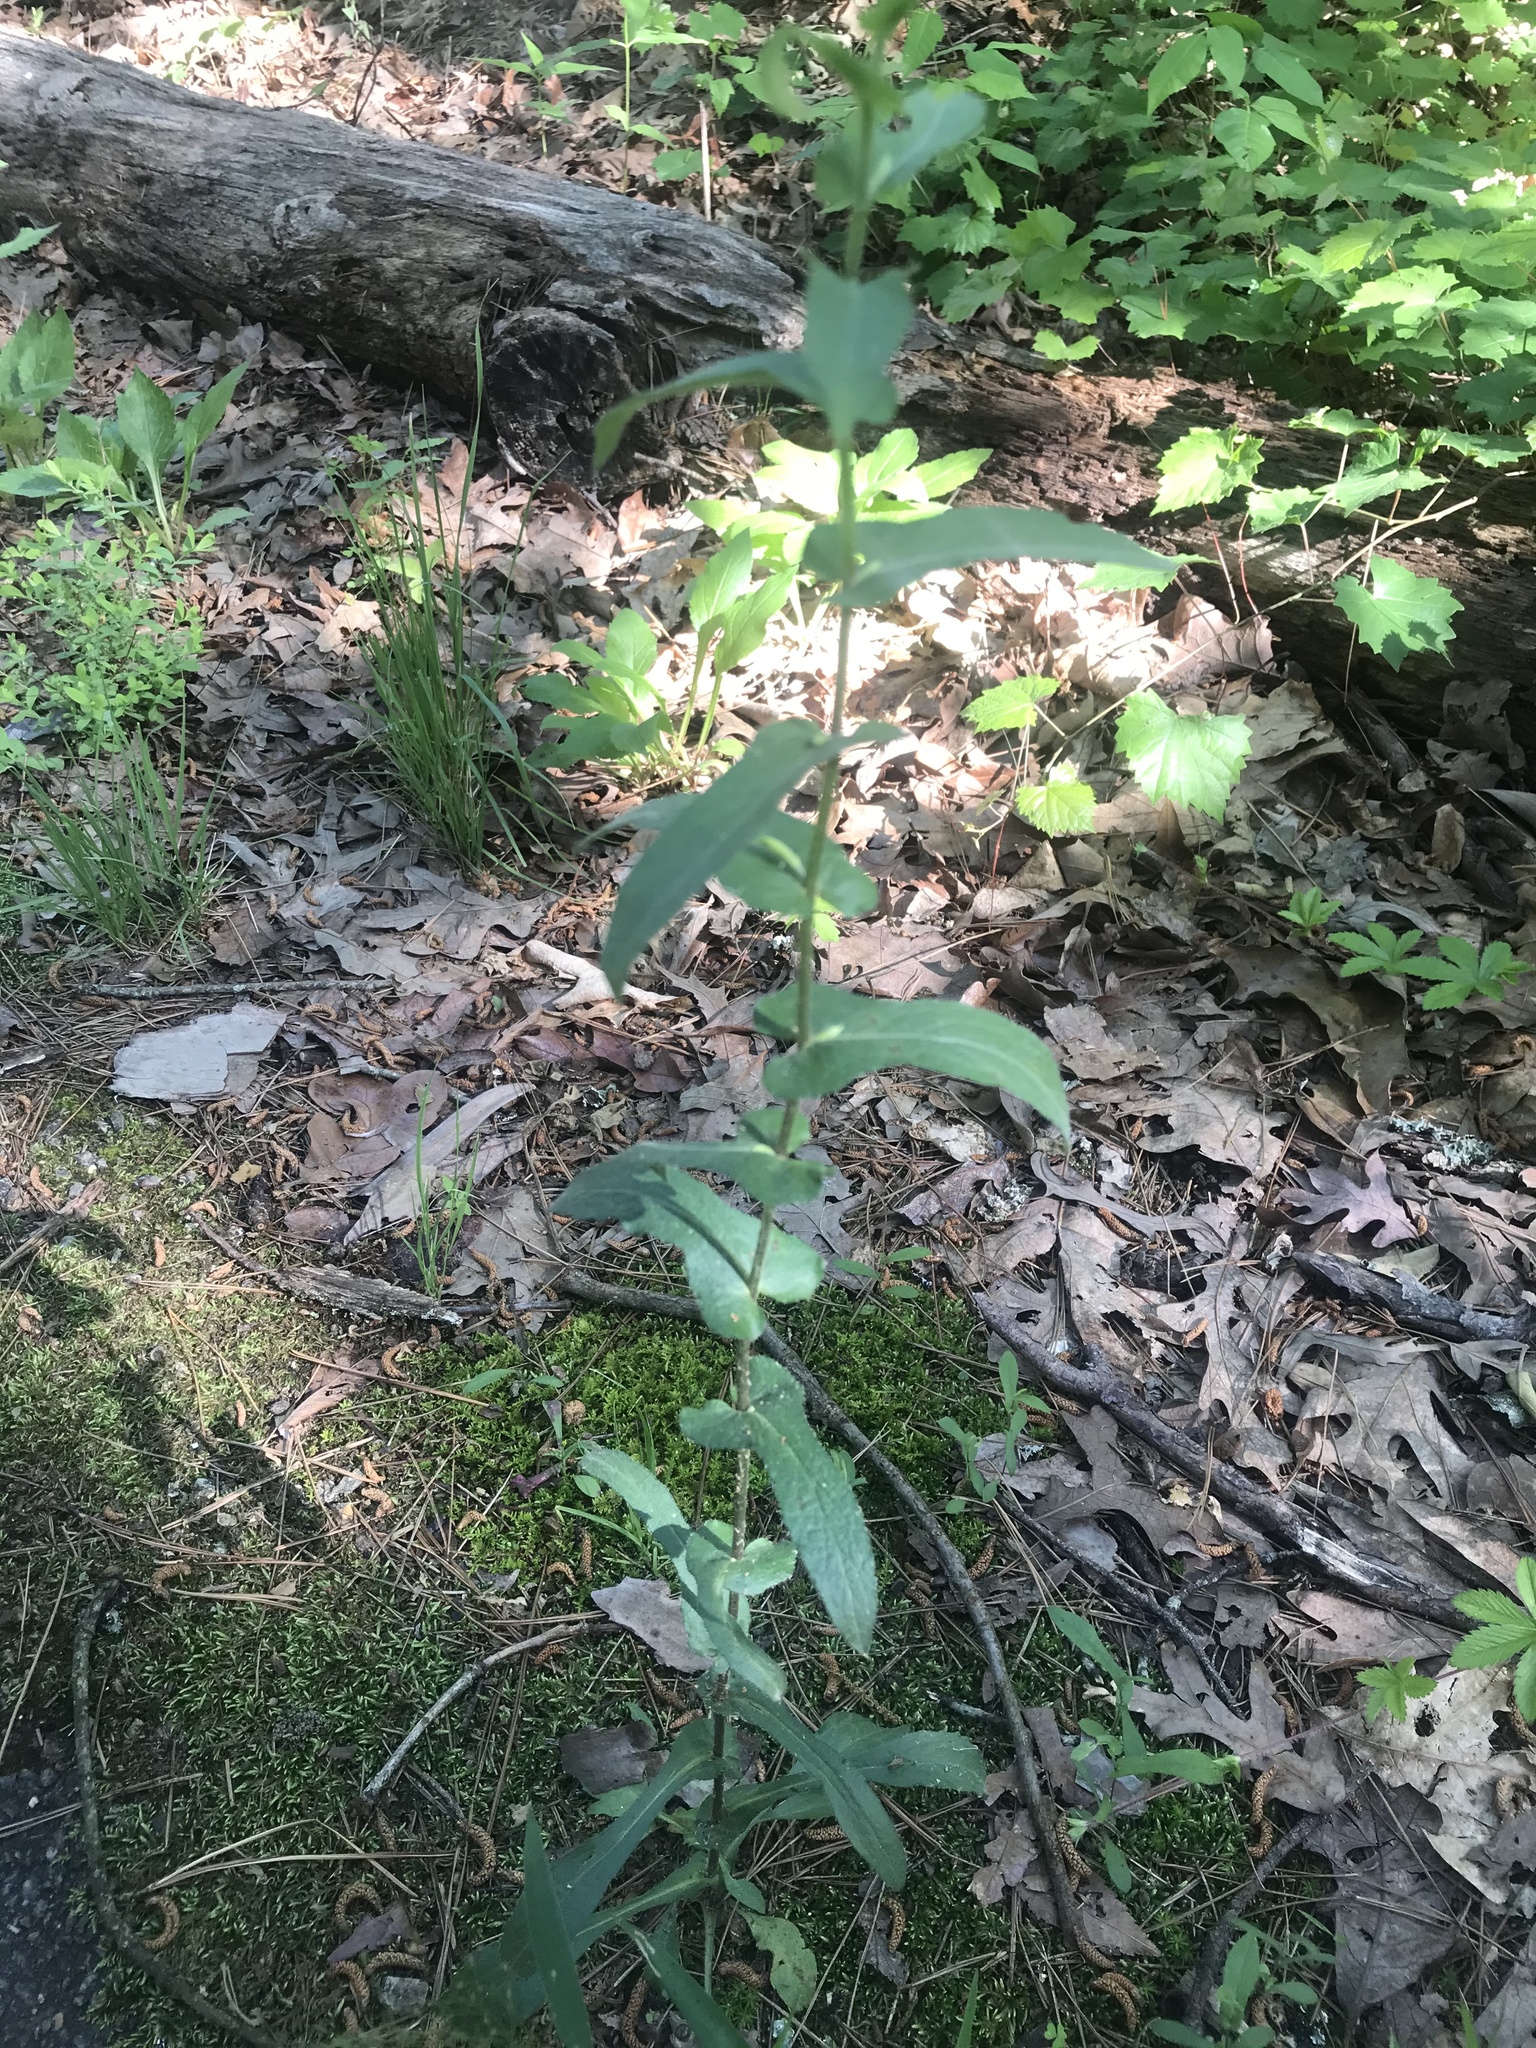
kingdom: Plantae
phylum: Tracheophyta
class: Magnoliopsida
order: Asterales
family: Asteraceae
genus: Symphyotrichum
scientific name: Symphyotrichum patens
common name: Late purple aster
